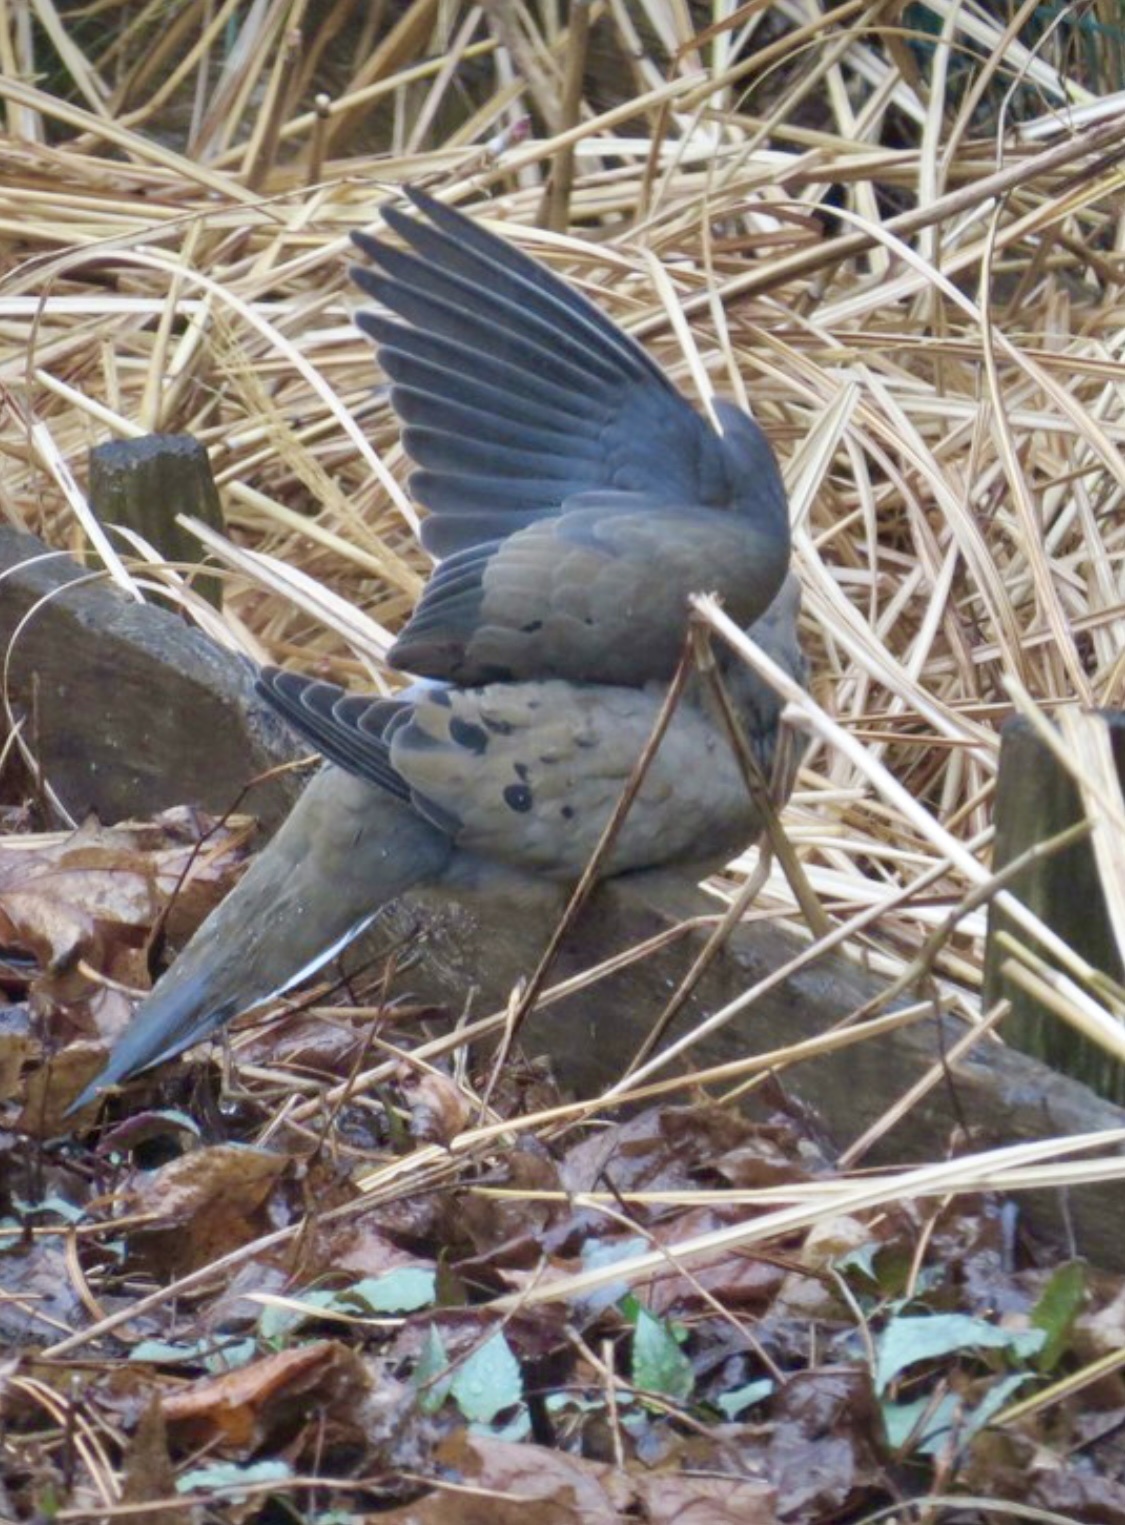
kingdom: Animalia
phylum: Chordata
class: Aves
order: Columbiformes
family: Columbidae
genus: Zenaida
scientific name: Zenaida macroura
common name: Mourning dove
